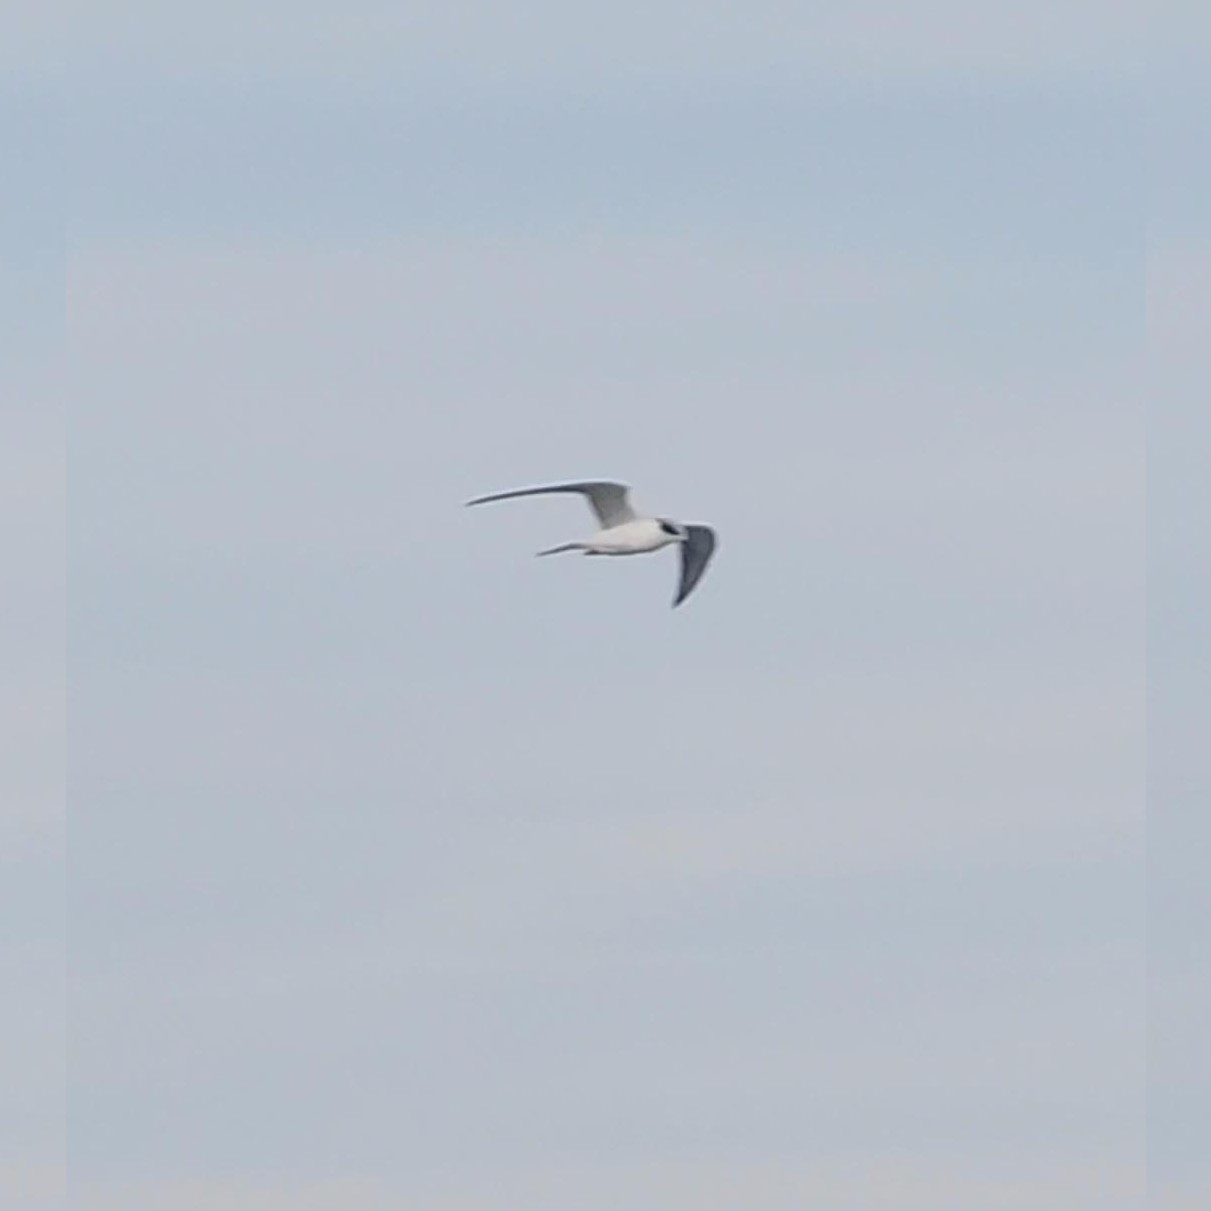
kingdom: Animalia
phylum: Chordata
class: Aves
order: Charadriiformes
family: Laridae
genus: Sterna
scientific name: Sterna forsteri
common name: Forster's tern
